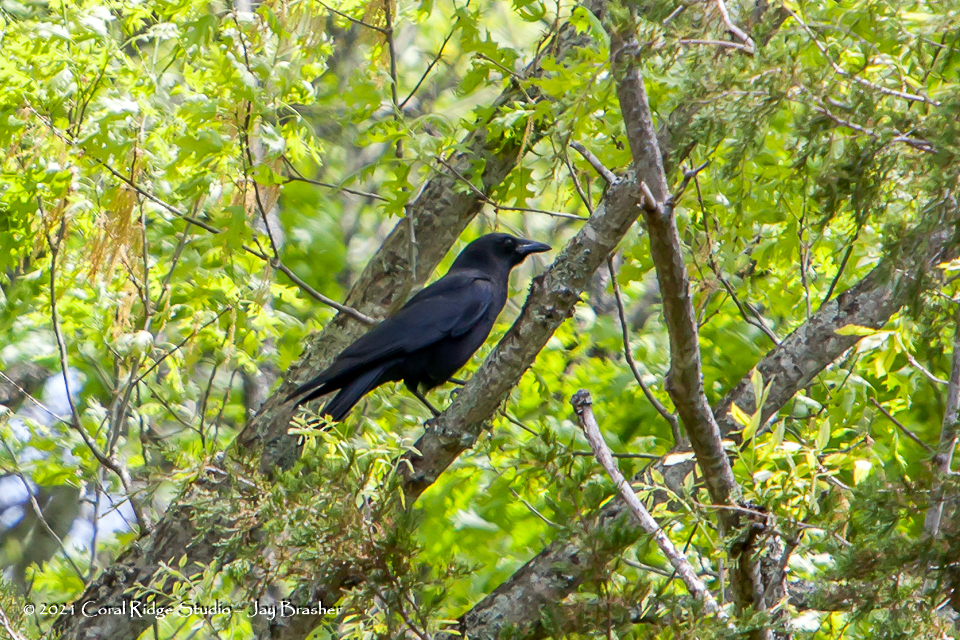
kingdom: Animalia
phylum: Chordata
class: Aves
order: Passeriformes
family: Corvidae
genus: Corvus
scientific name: Corvus brachyrhynchos
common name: American crow
